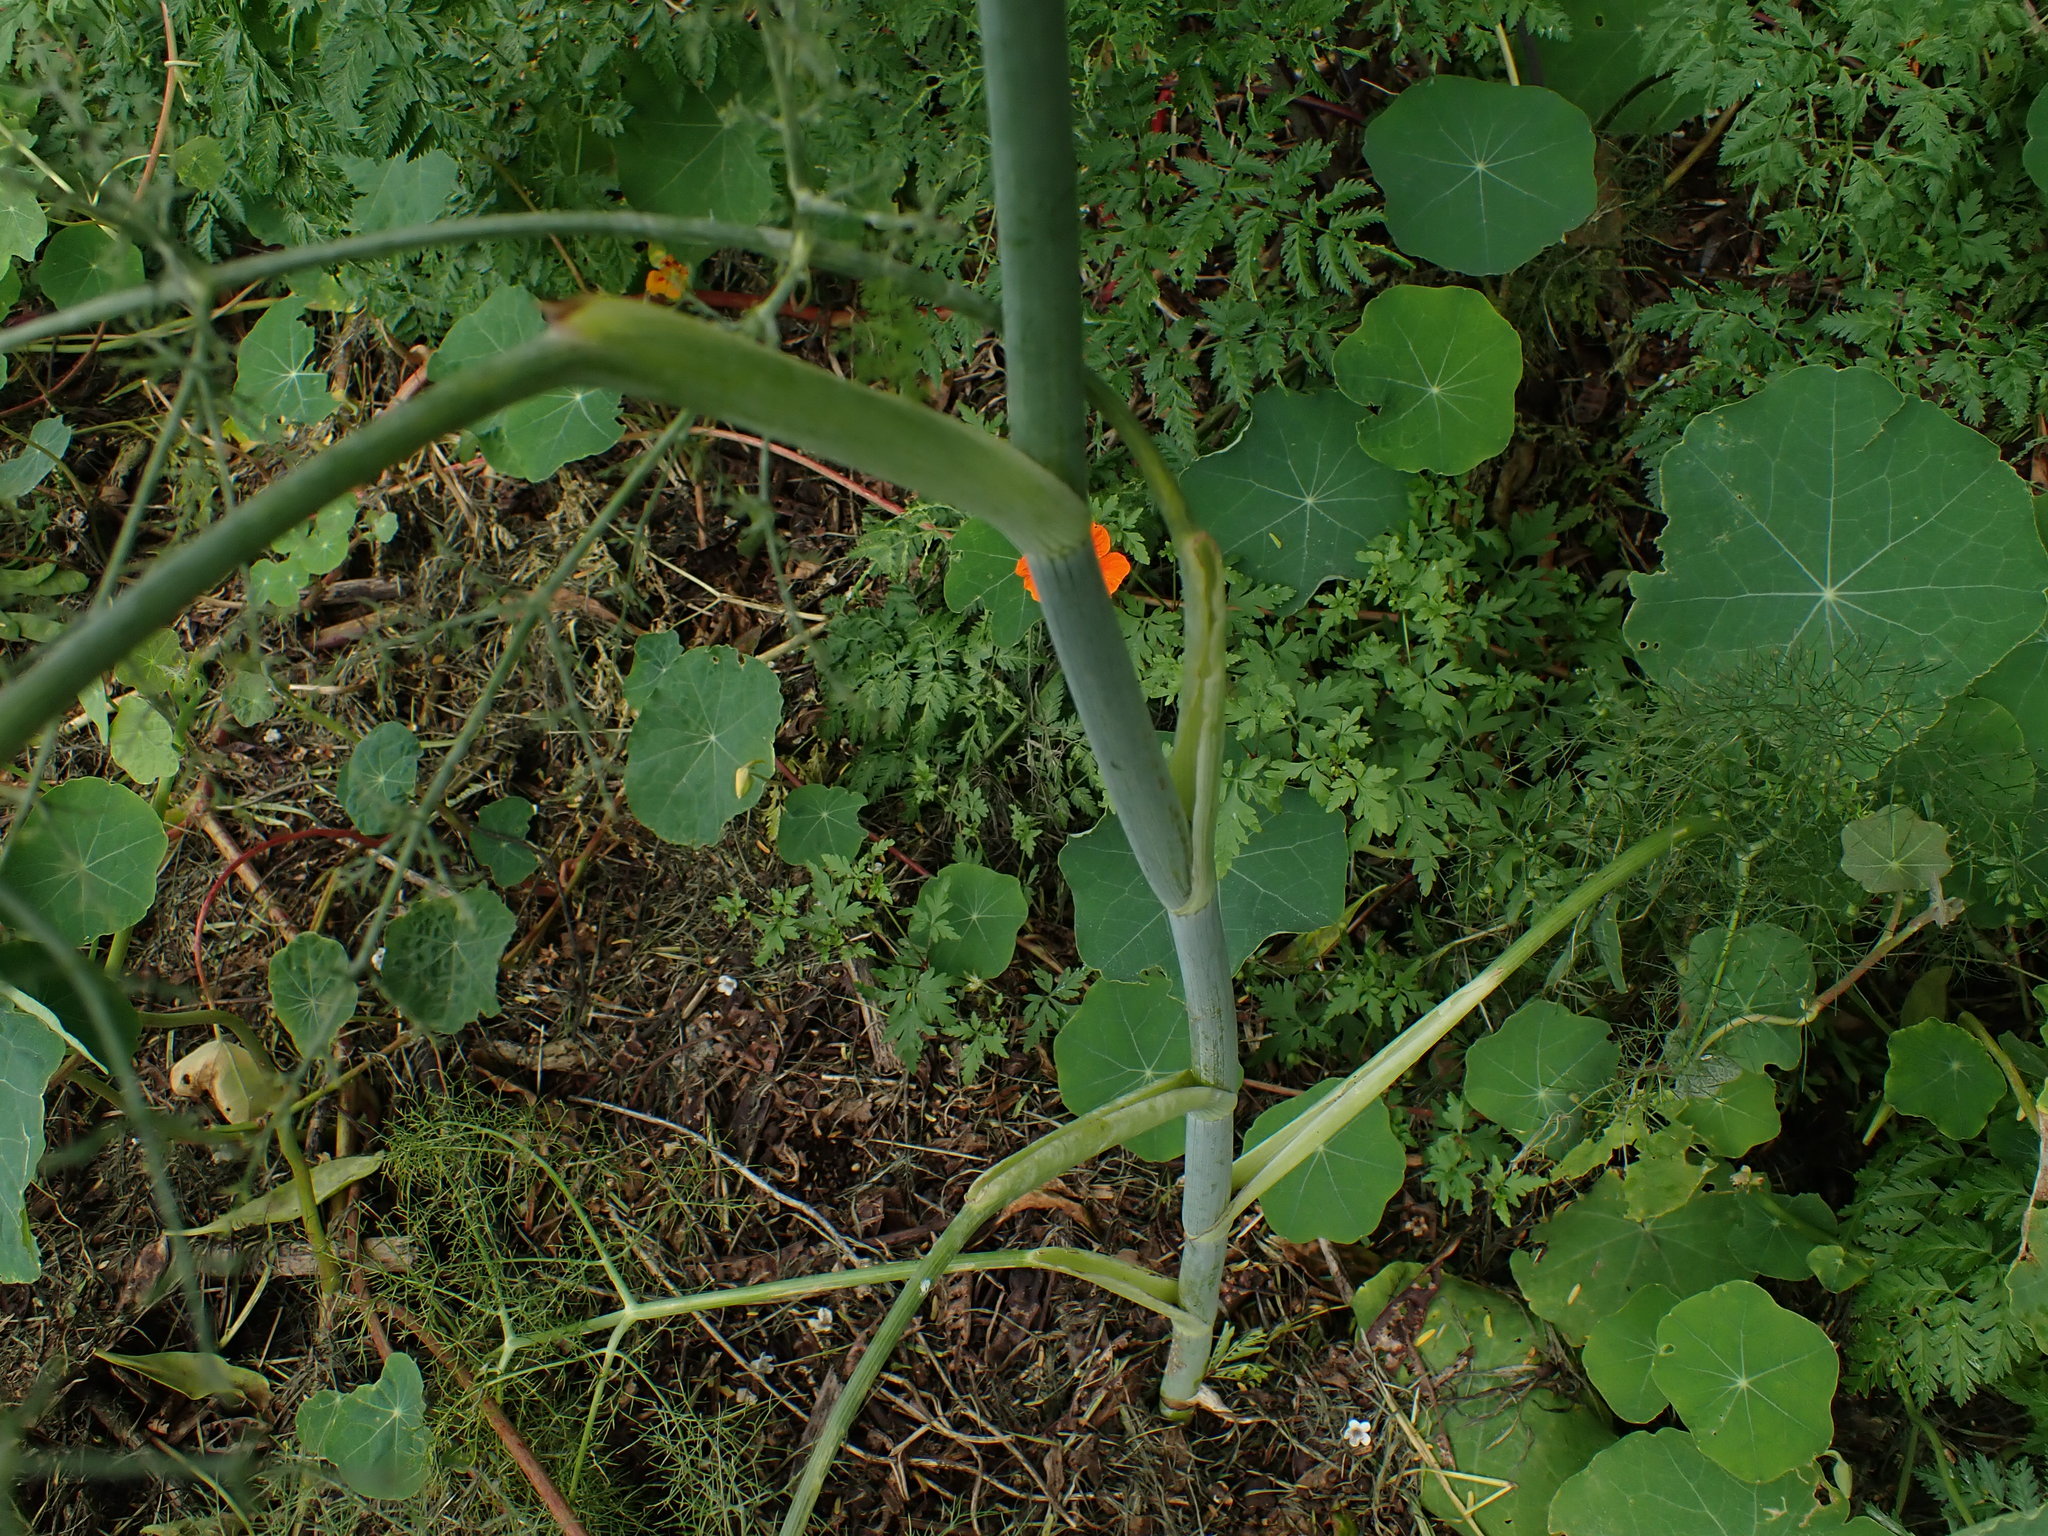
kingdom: Plantae
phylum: Tracheophyta
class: Magnoliopsida
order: Apiales
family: Apiaceae
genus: Foeniculum
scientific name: Foeniculum vulgare
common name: Fennel
